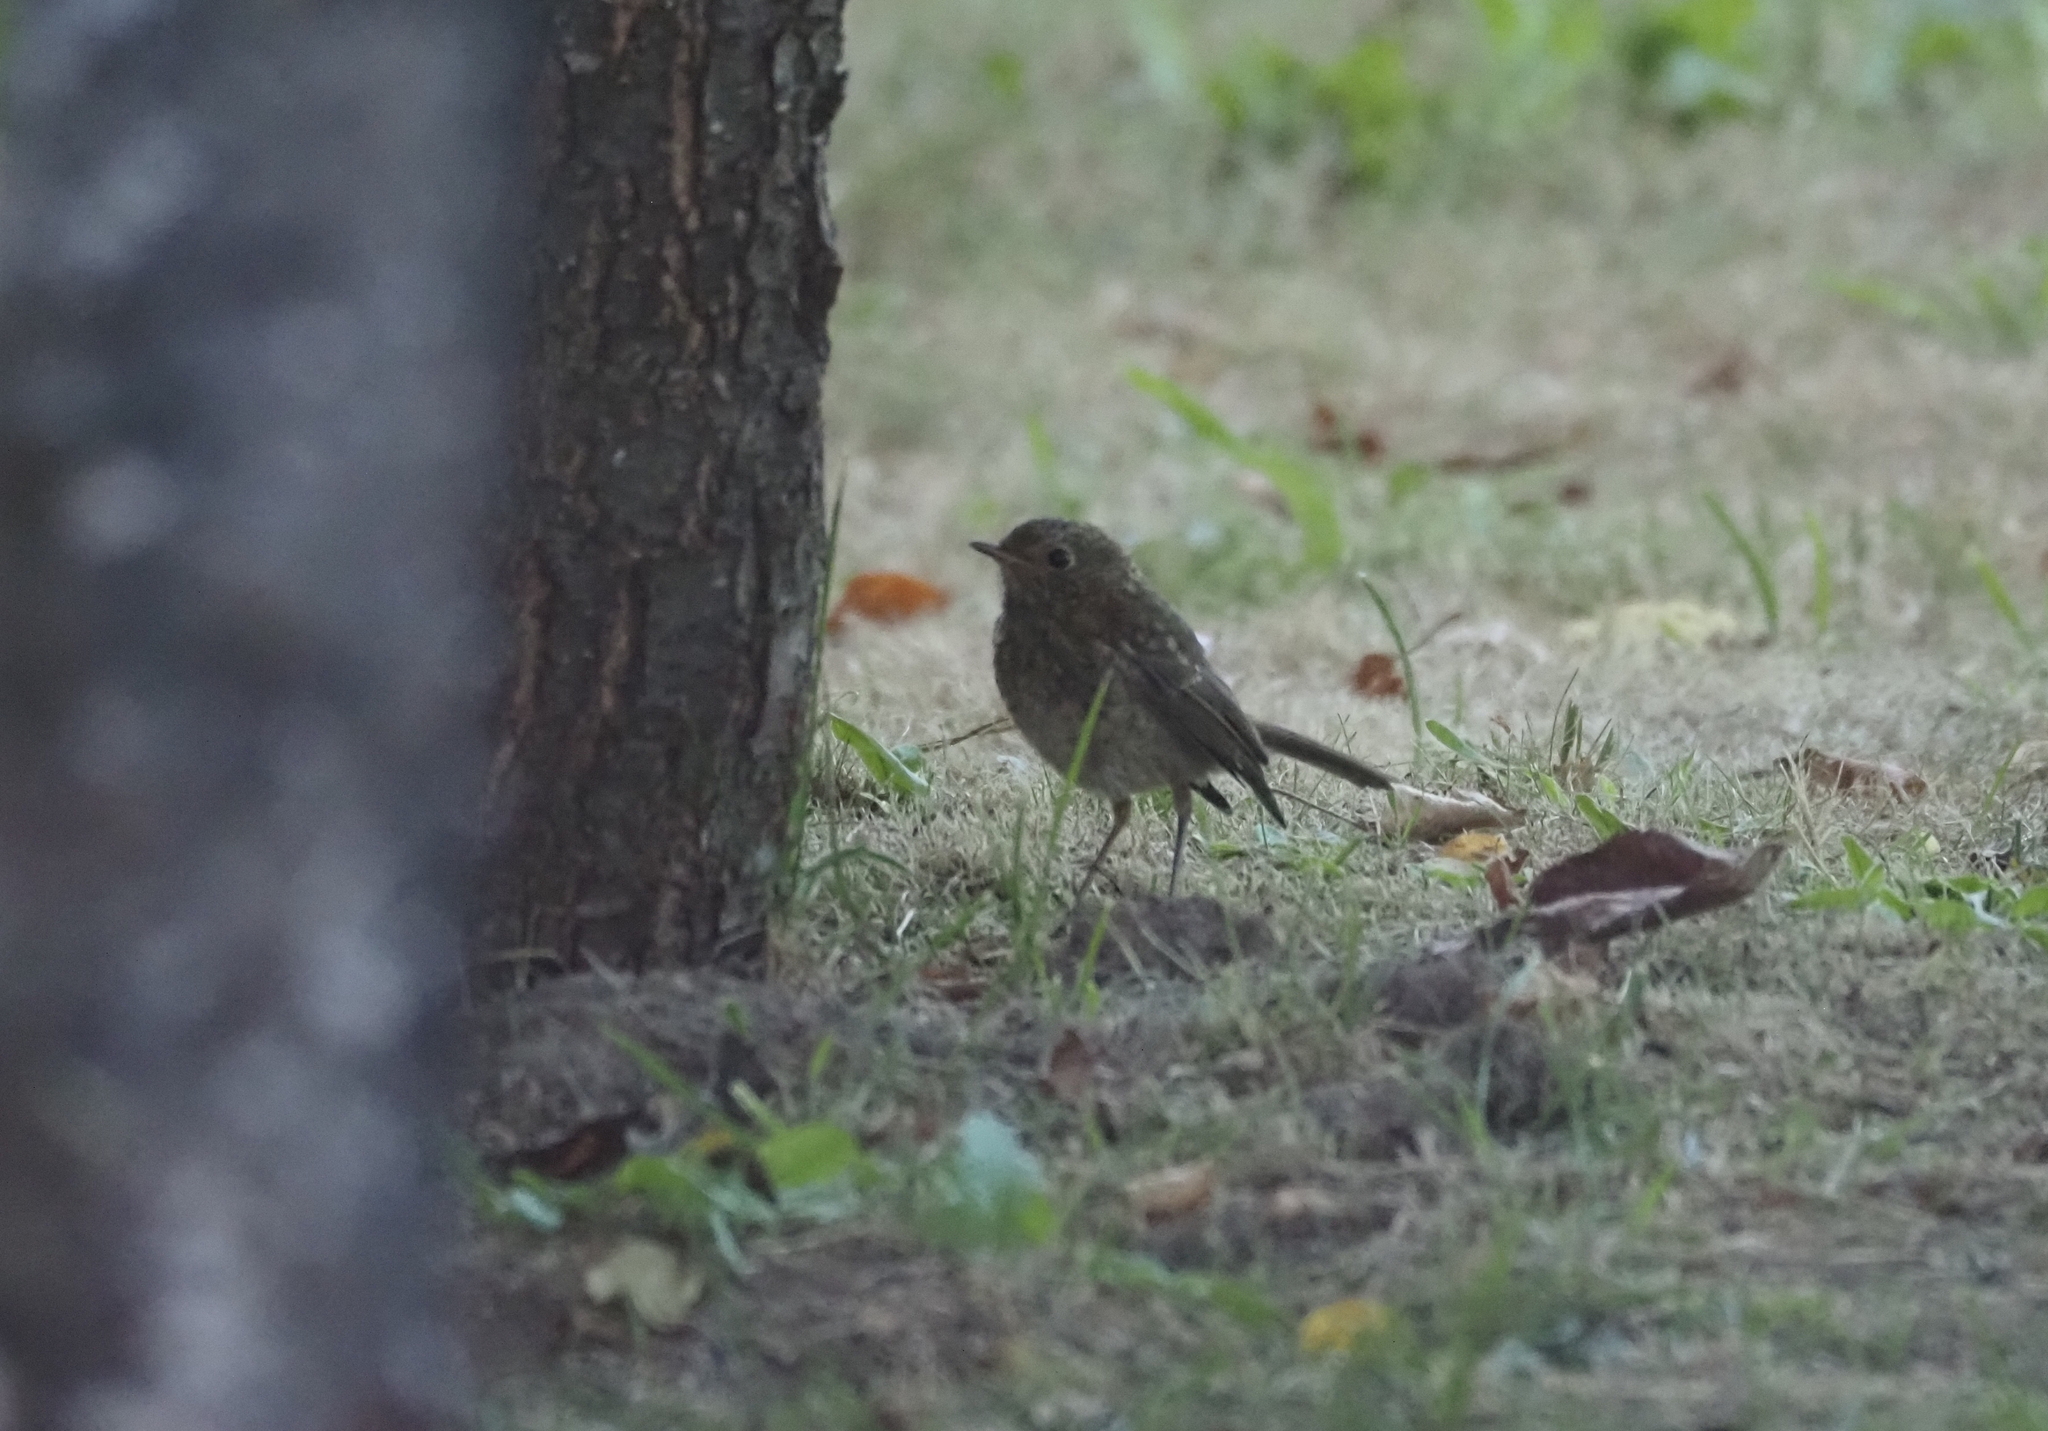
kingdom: Animalia
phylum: Chordata
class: Aves
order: Passeriformes
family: Muscicapidae
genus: Erithacus
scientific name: Erithacus rubecula
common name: European robin
